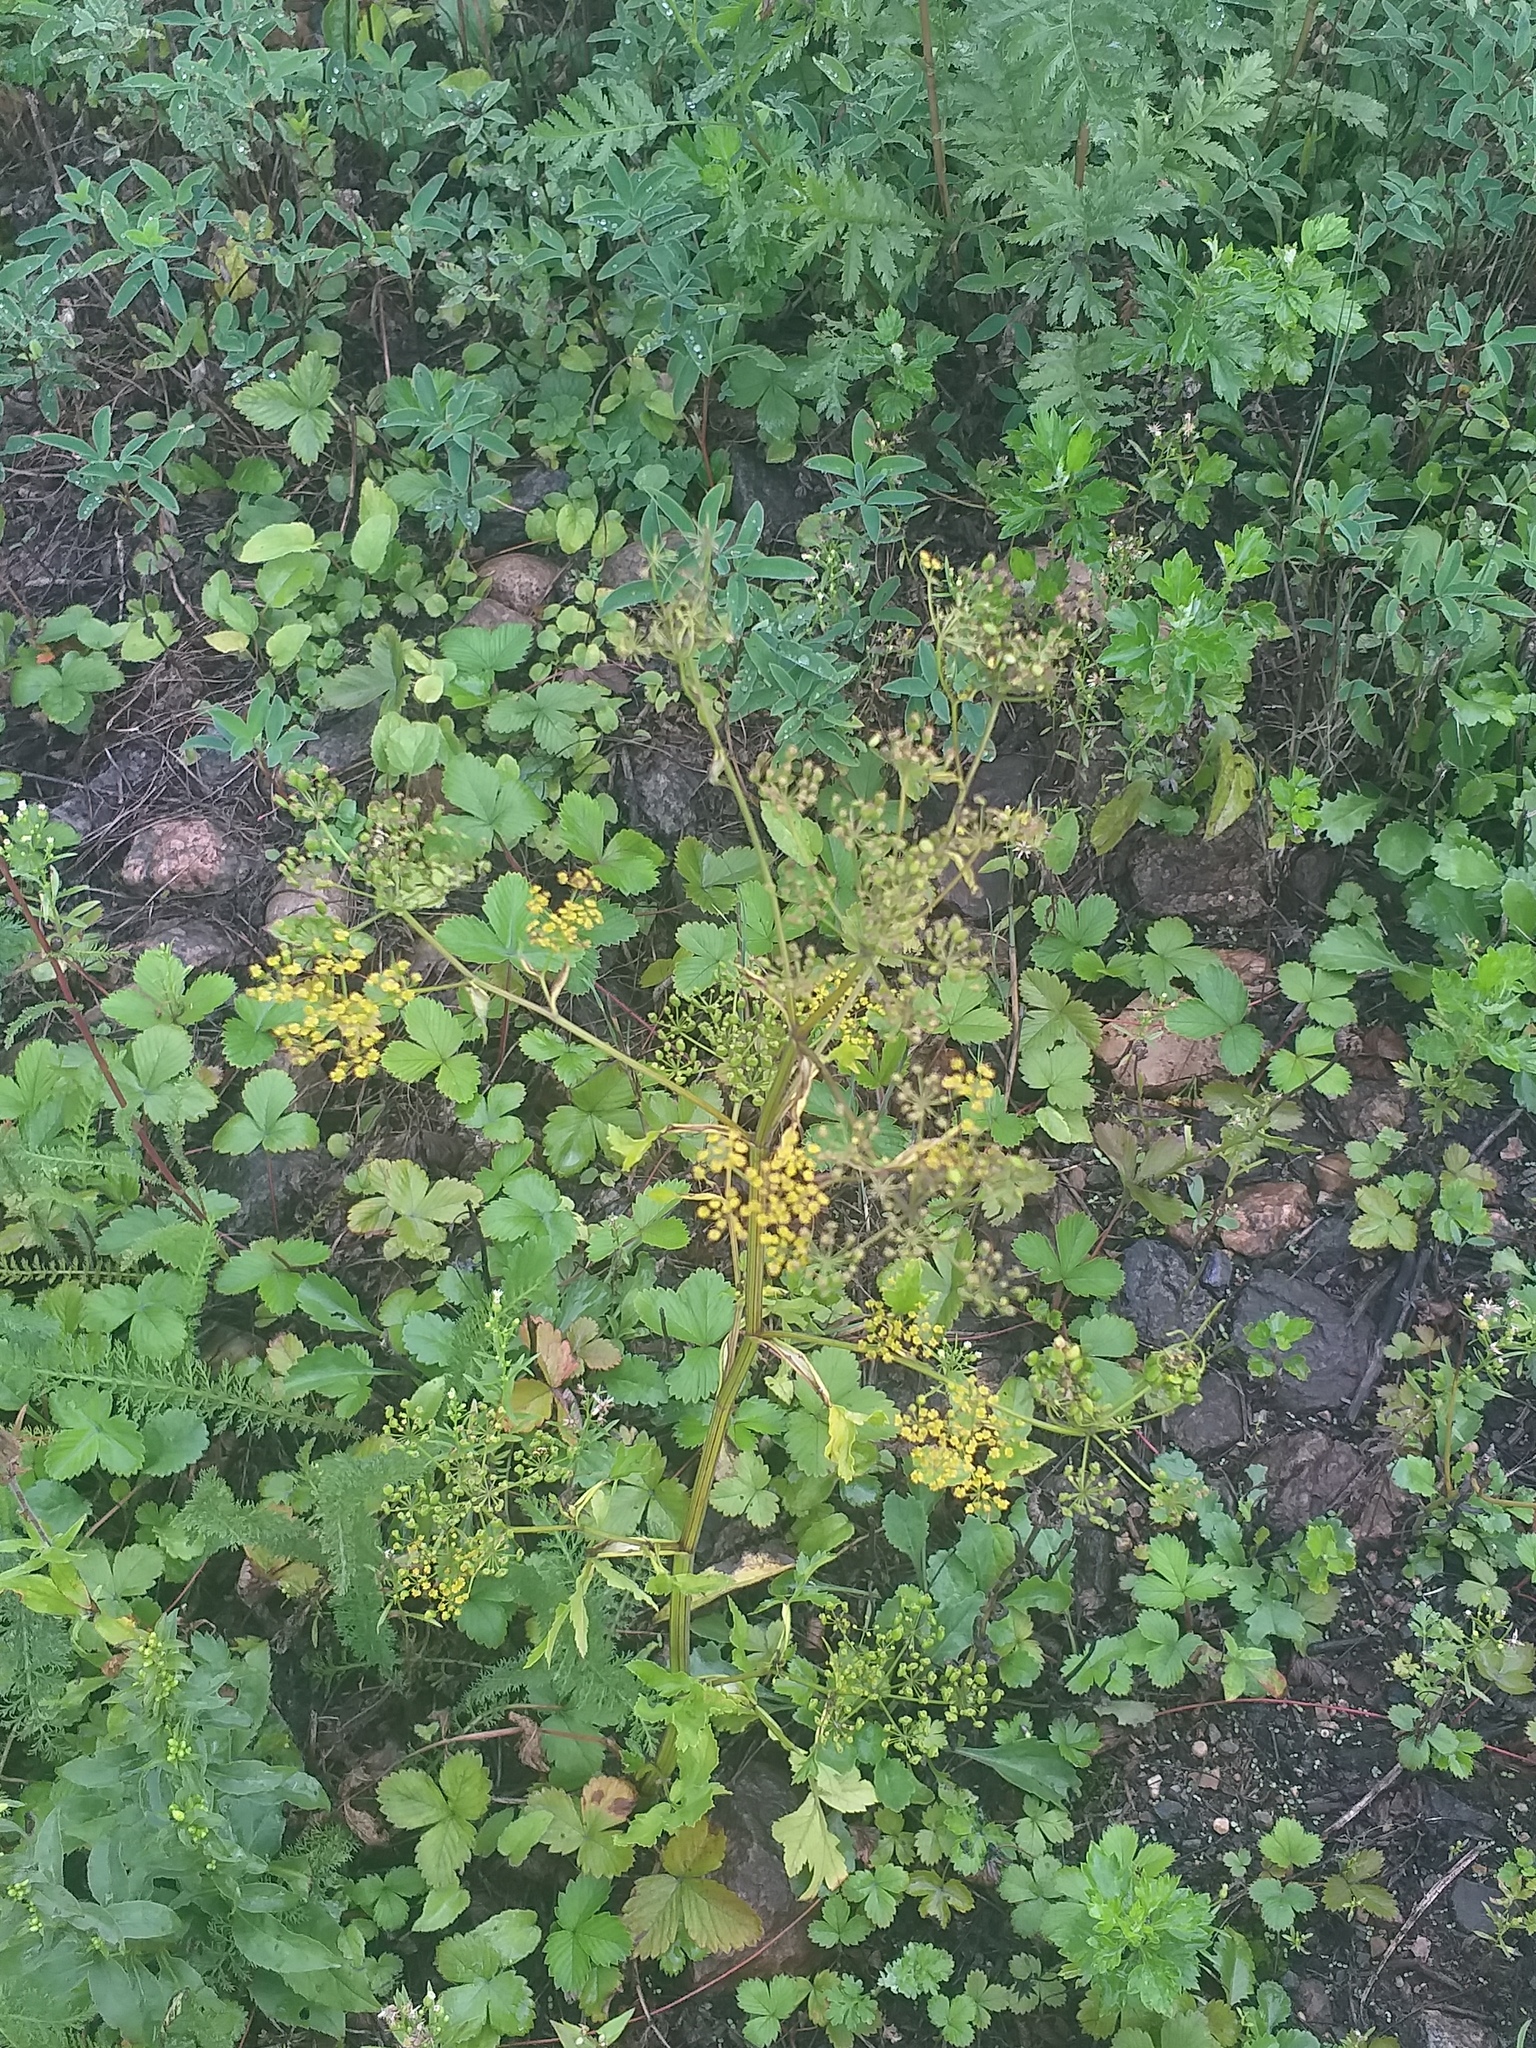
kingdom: Plantae
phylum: Tracheophyta
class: Magnoliopsida
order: Apiales
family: Apiaceae
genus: Pastinaca
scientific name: Pastinaca sativa
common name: Wild parsnip
